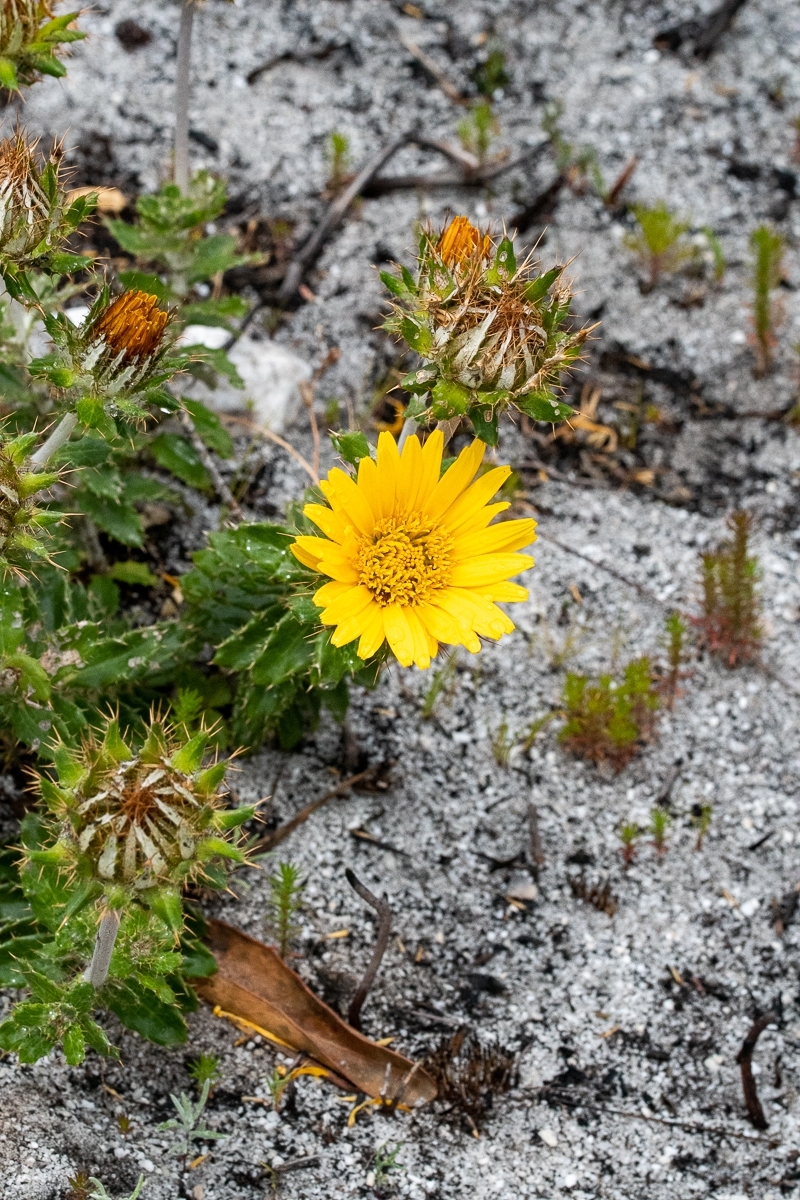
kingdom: Plantae
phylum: Tracheophyta
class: Magnoliopsida
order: Asterales
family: Asteraceae
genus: Berkheya
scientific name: Berkheya barbata
